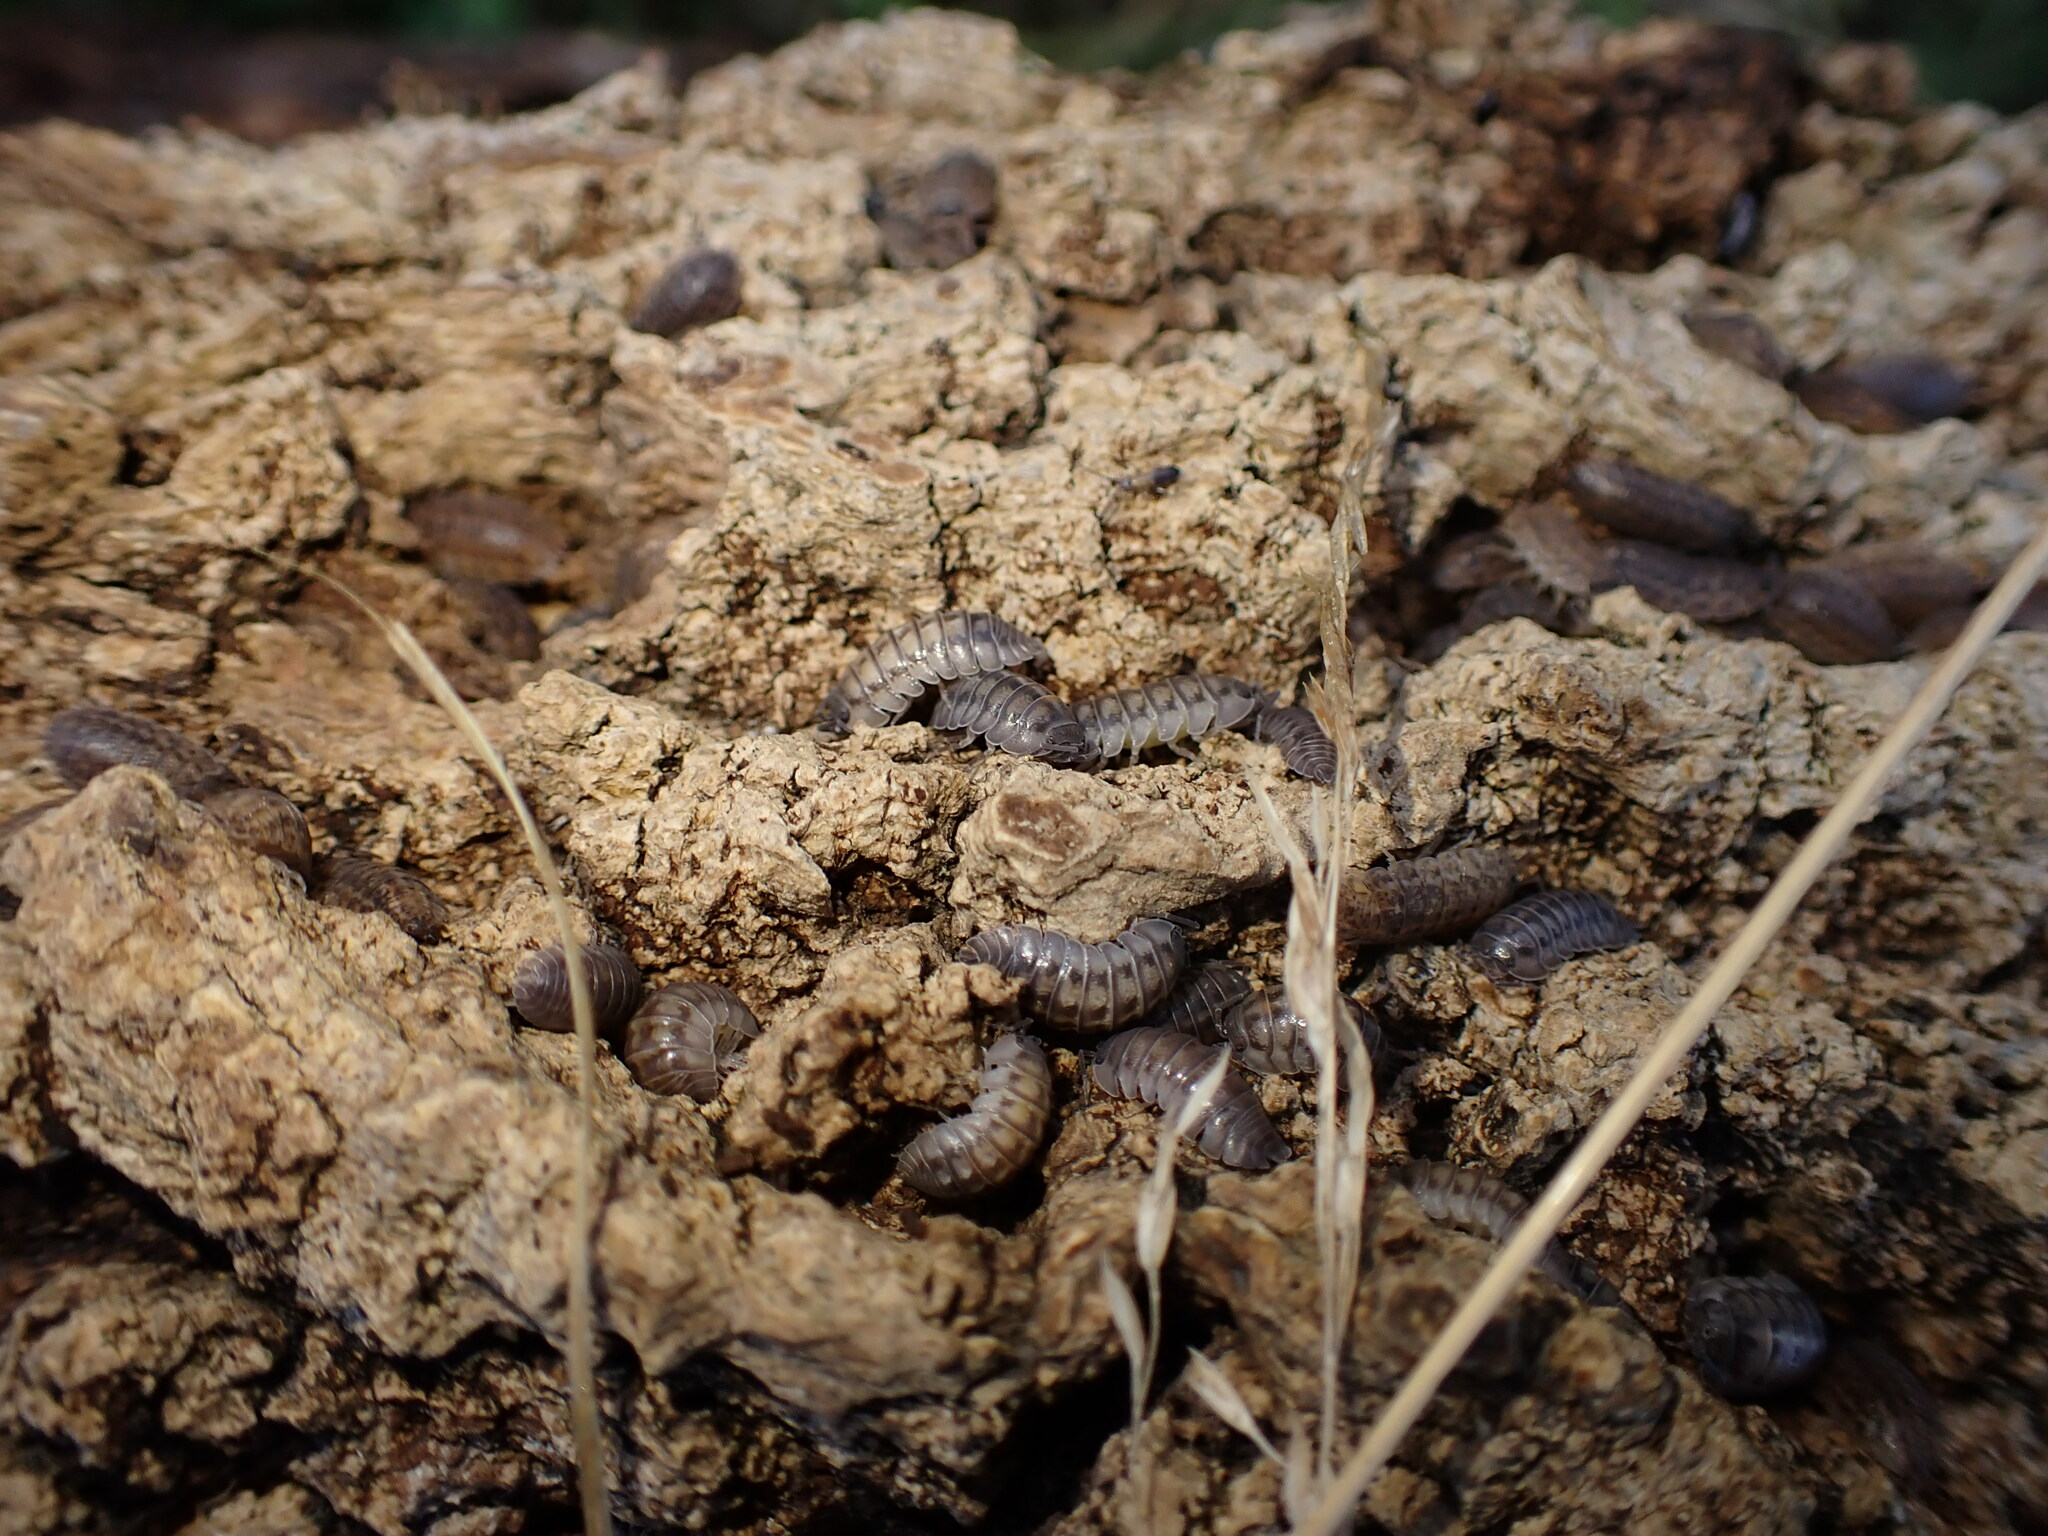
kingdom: Animalia
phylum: Arthropoda
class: Malacostraca
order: Isopoda
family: Armadillidiidae
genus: Armadillidium
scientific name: Armadillidium nasatum
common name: Isopod
